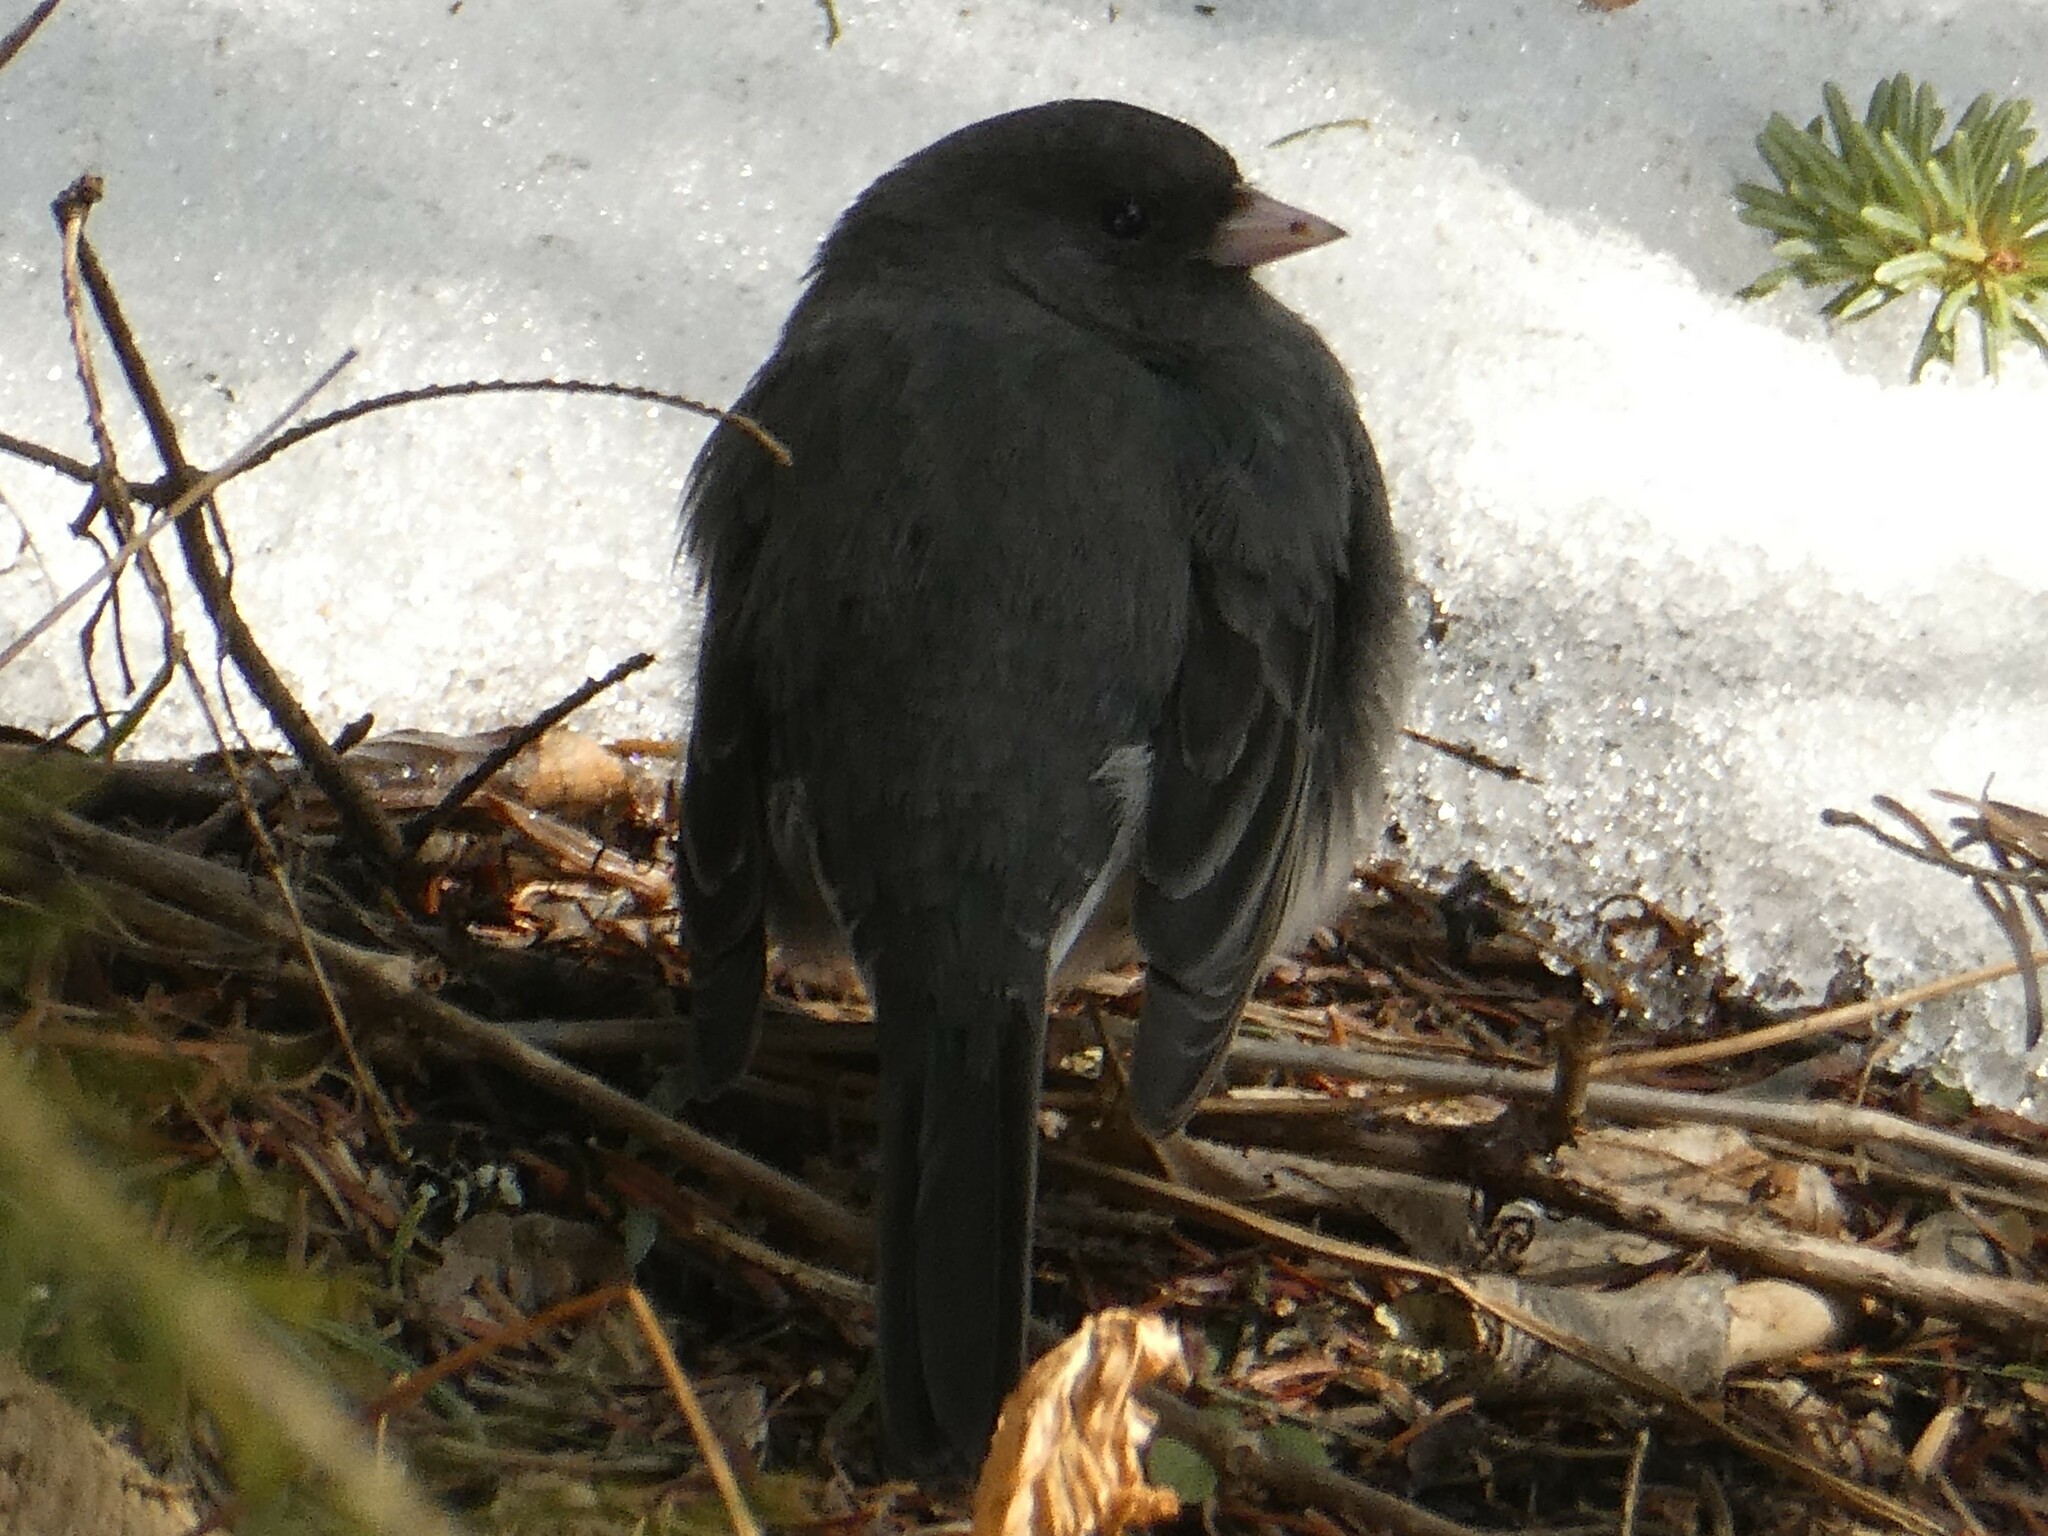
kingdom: Animalia
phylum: Chordata
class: Aves
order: Passeriformes
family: Passerellidae
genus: Junco
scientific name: Junco hyemalis
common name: Dark-eyed junco
